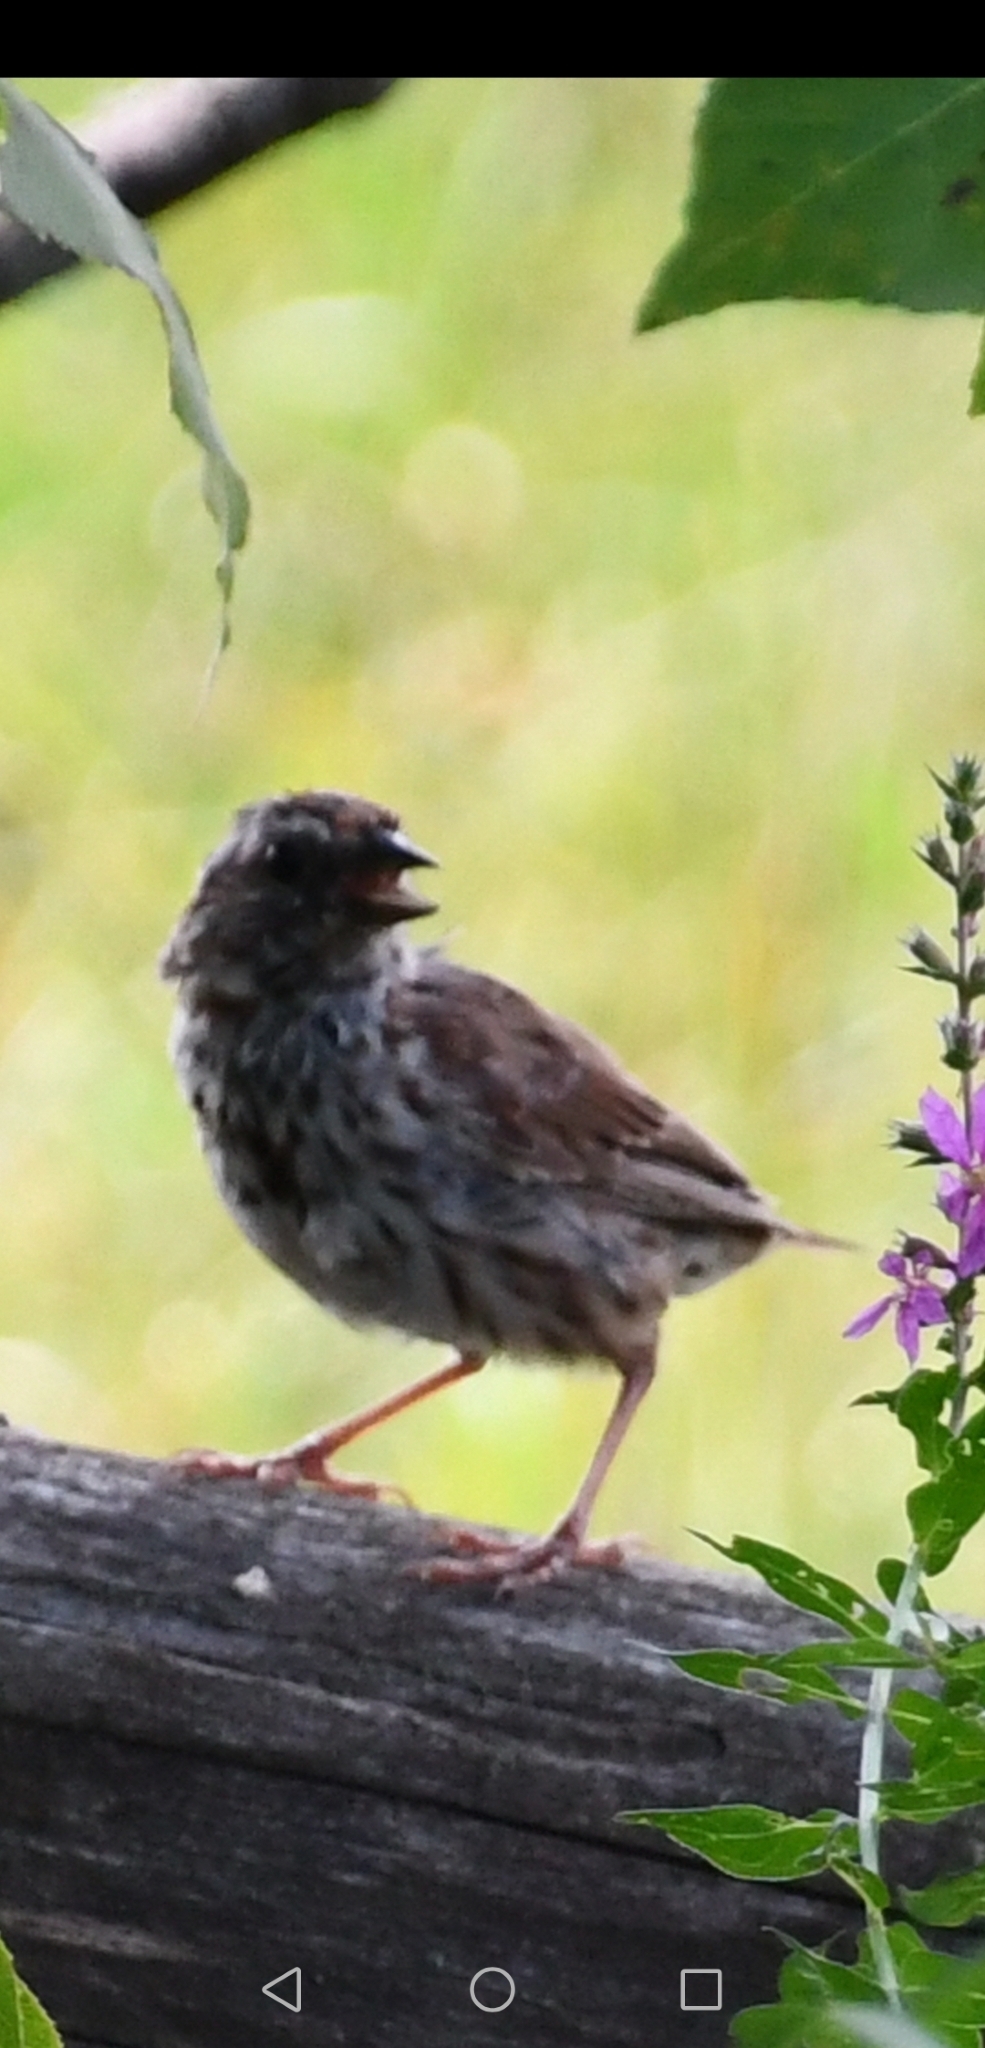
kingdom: Animalia
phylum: Chordata
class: Aves
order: Passeriformes
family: Passerellidae
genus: Melospiza
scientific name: Melospiza melodia
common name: Song sparrow
